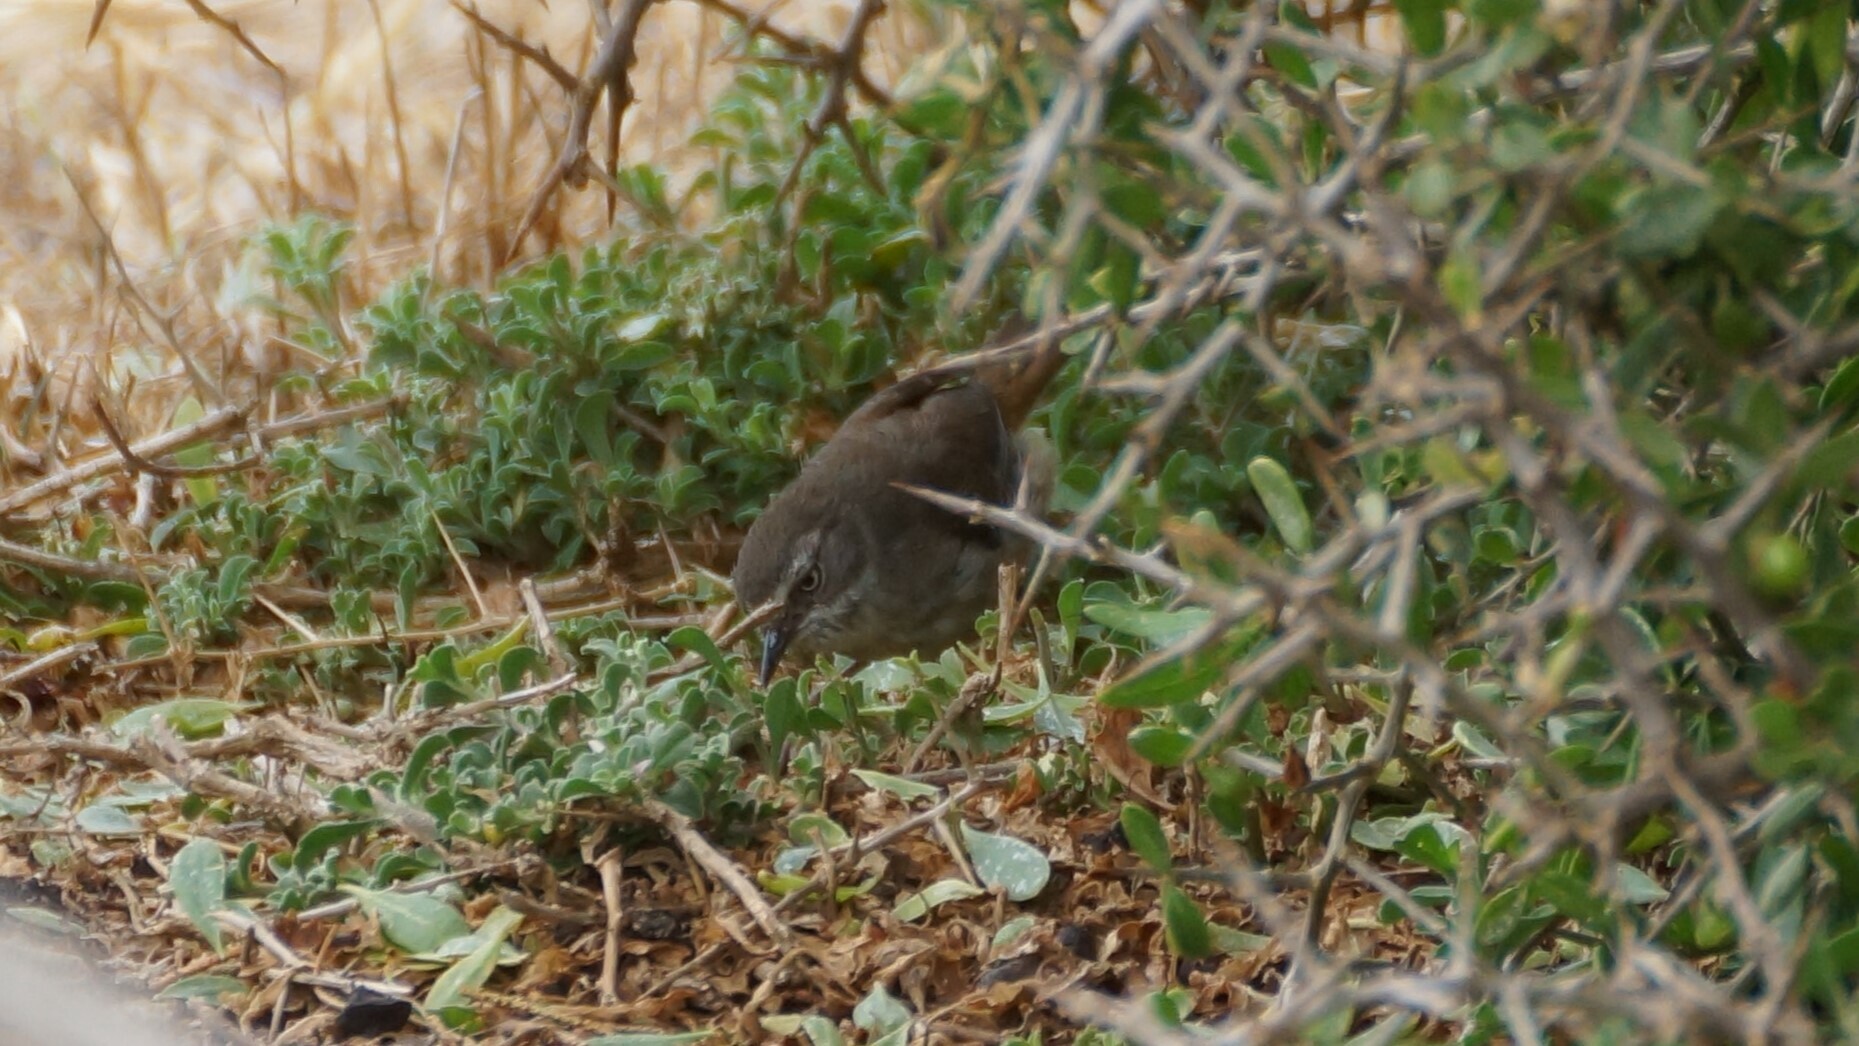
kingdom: Animalia
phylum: Chordata
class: Aves
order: Passeriformes
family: Acanthizidae
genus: Sericornis
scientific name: Sericornis frontalis
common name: White-browed scrubwren
